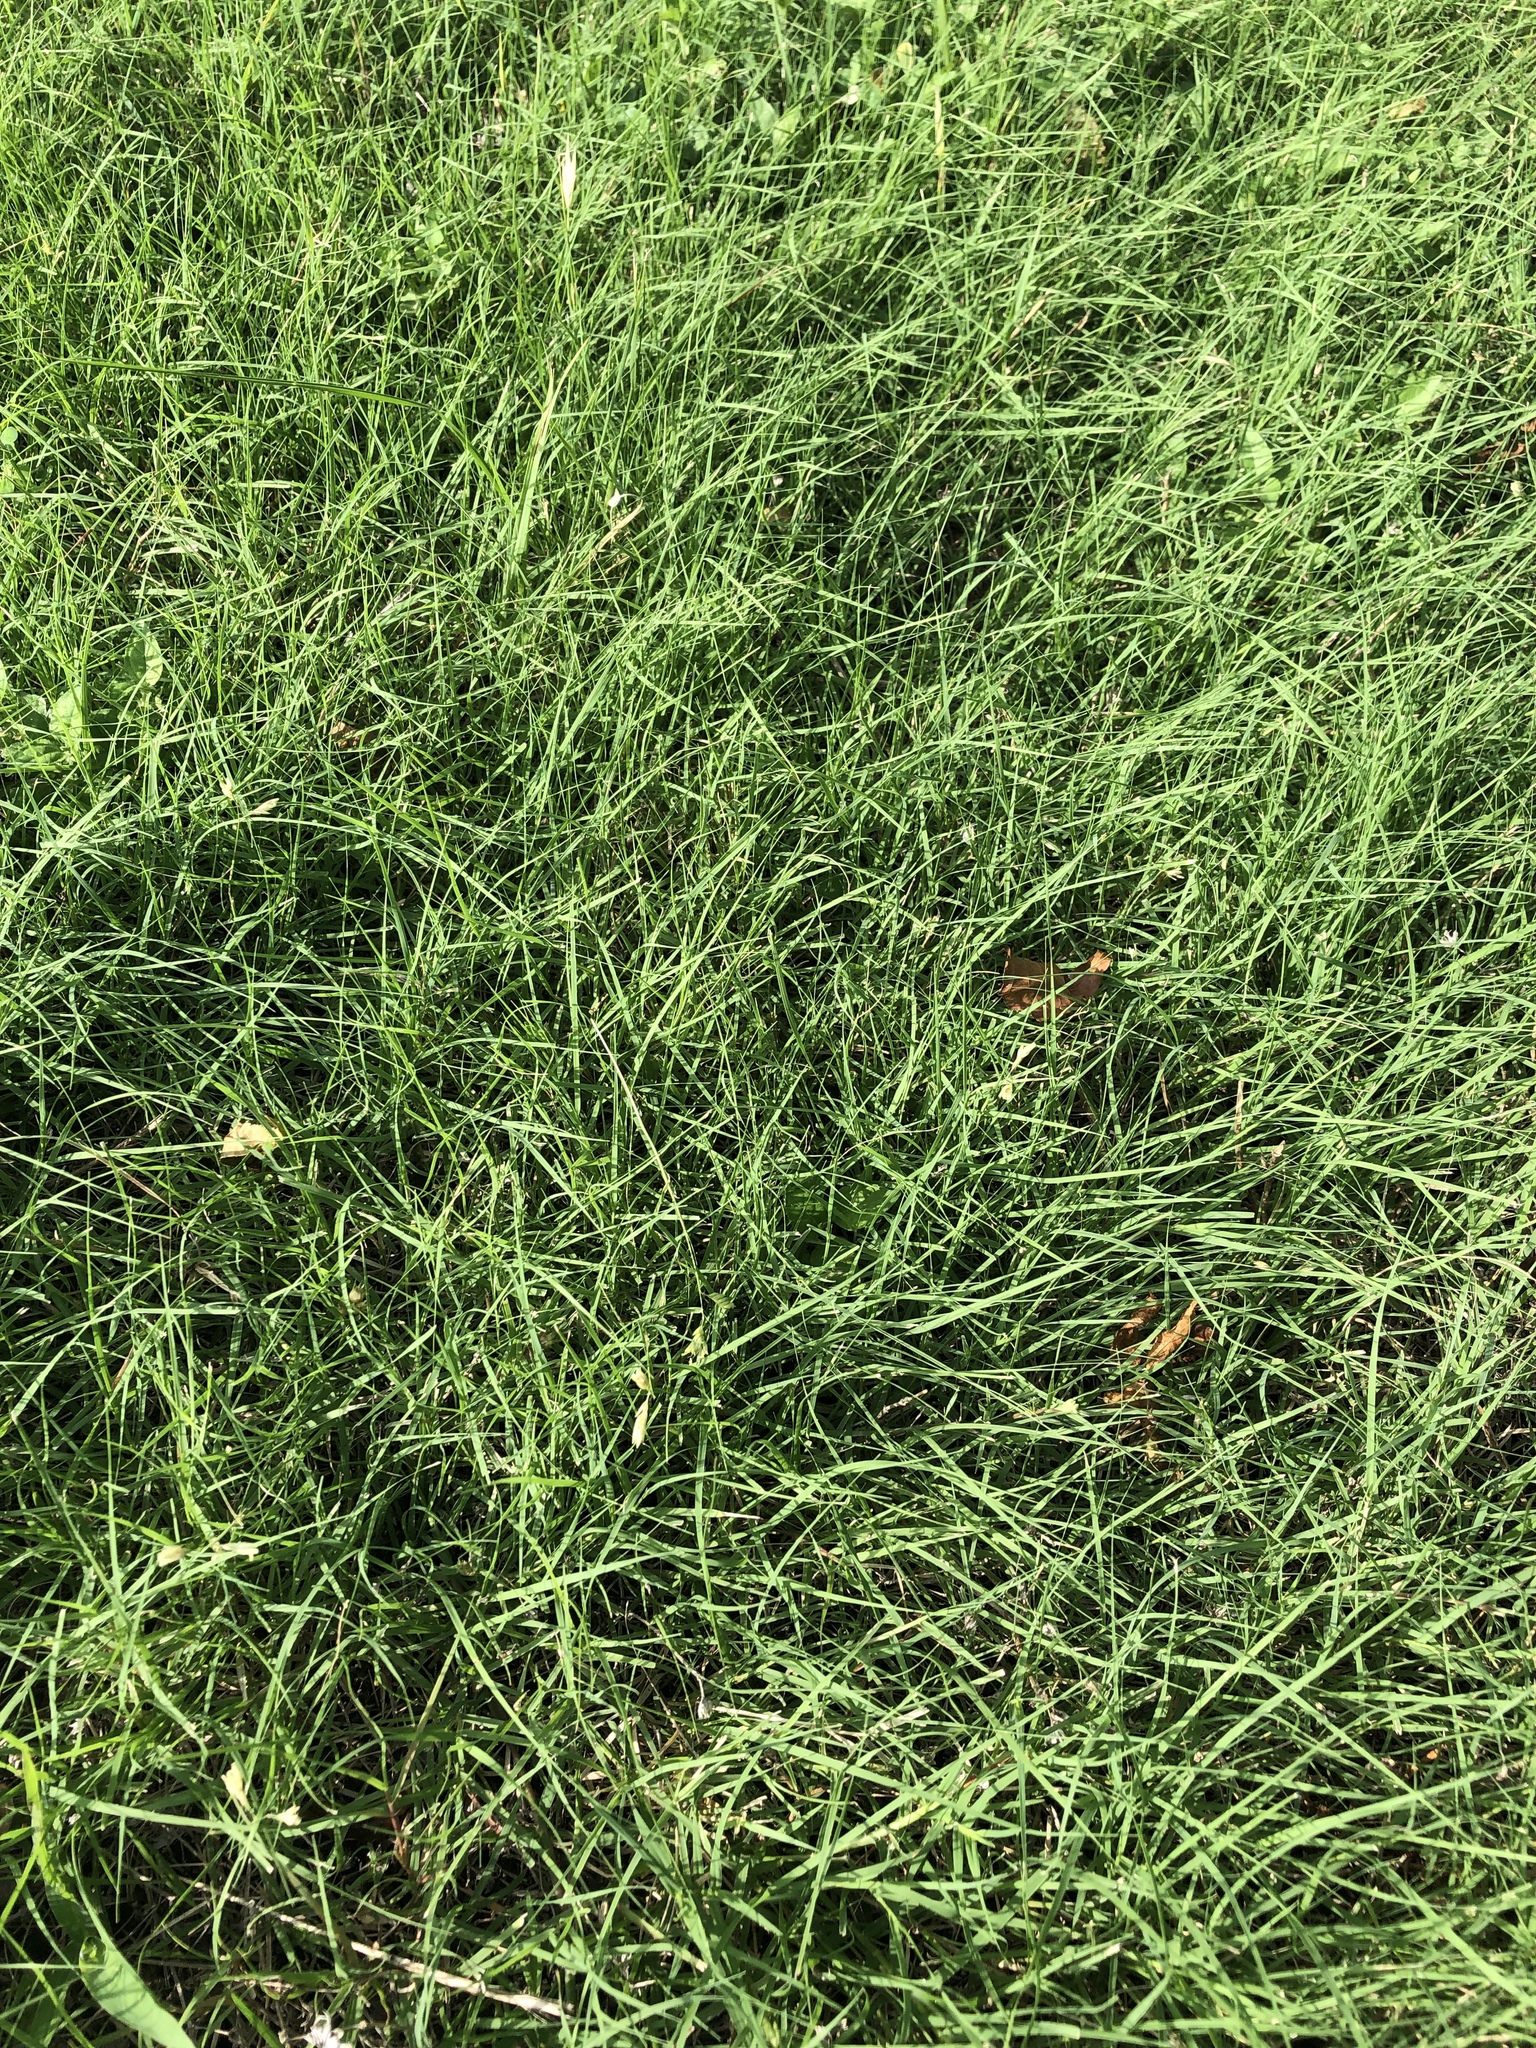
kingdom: Plantae
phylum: Tracheophyta
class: Liliopsida
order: Poales
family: Poaceae
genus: Bouteloua
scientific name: Bouteloua dactyloides
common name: Buffalo grass
